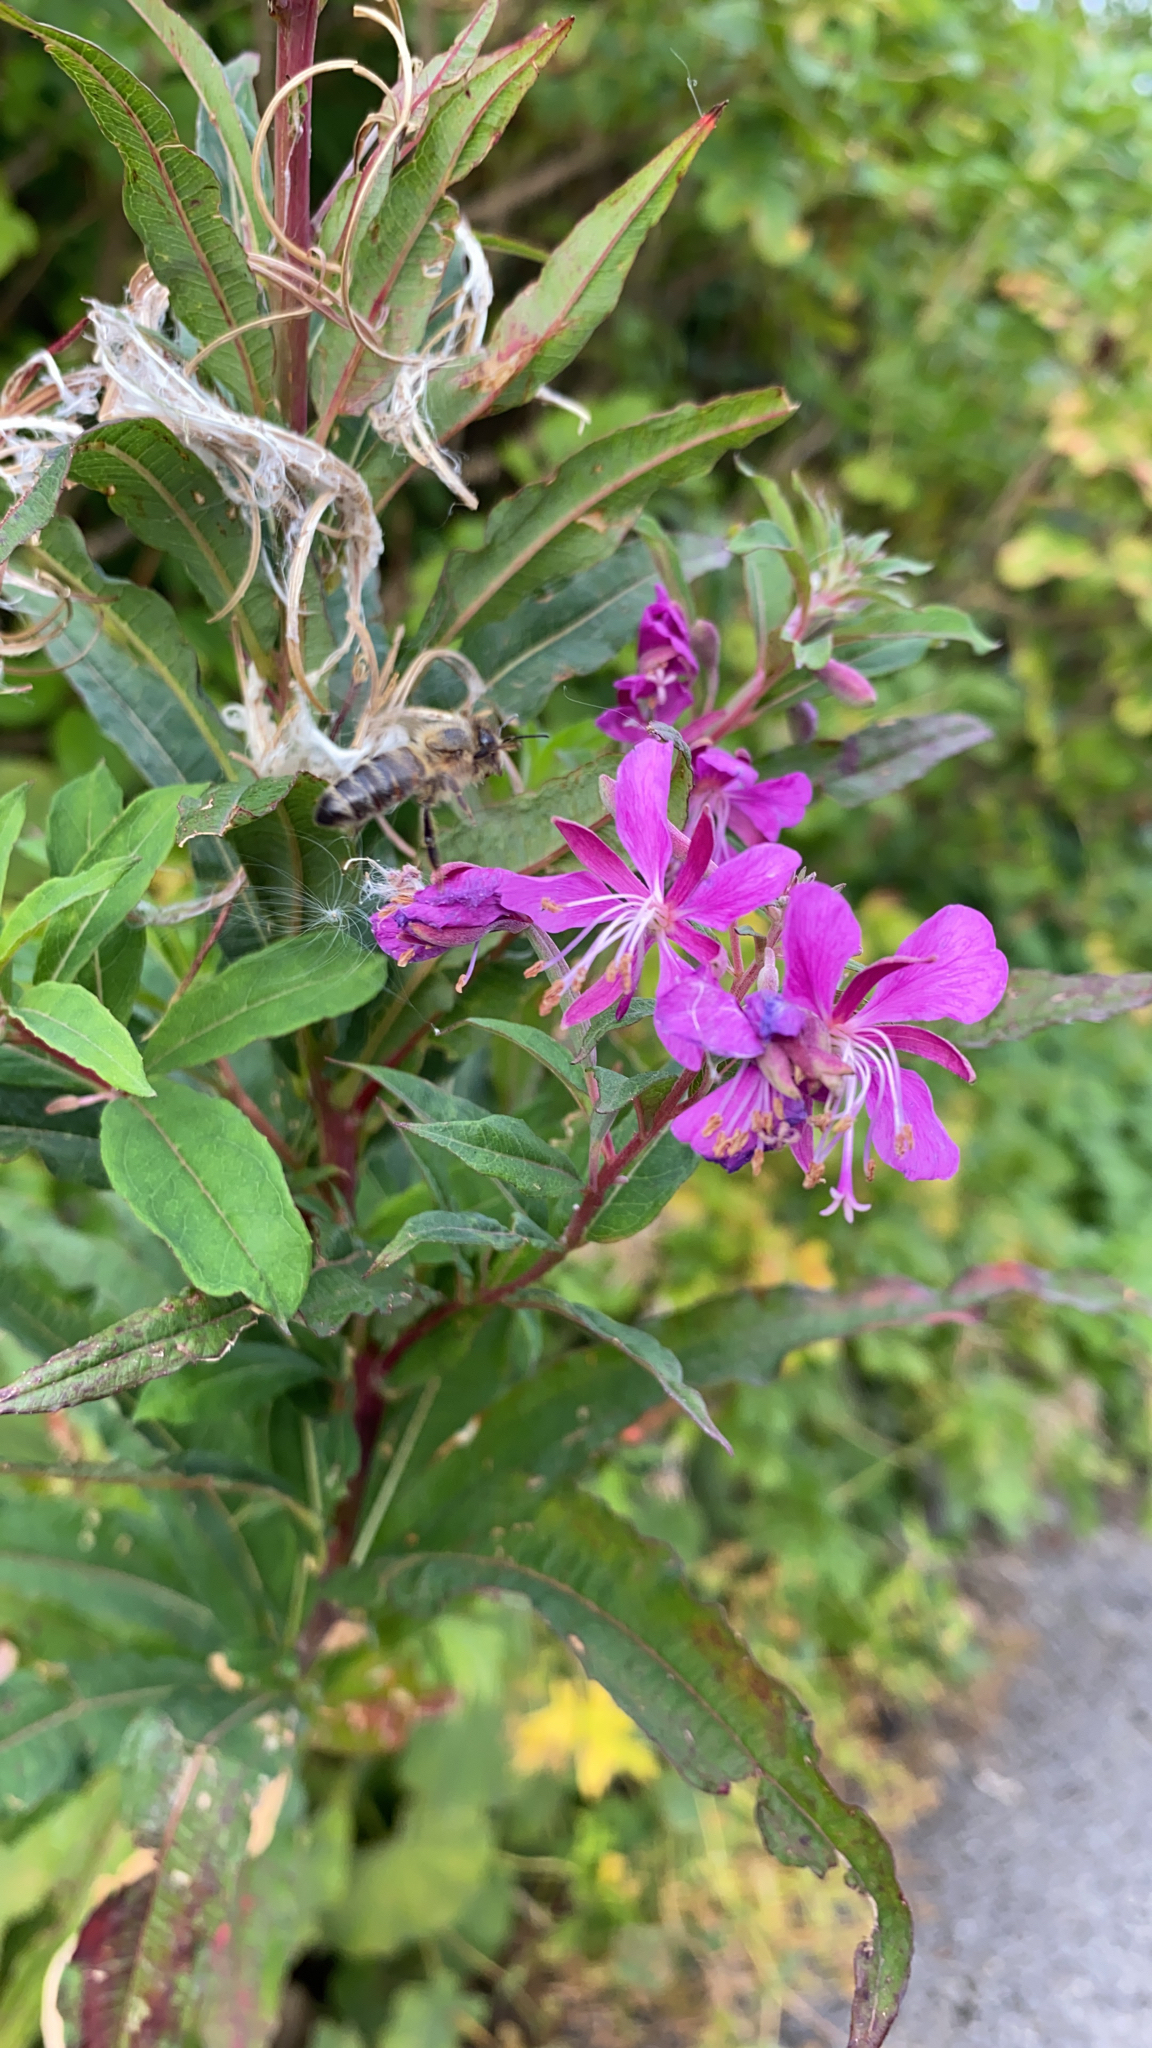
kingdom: Plantae
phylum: Tracheophyta
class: Magnoliopsida
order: Myrtales
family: Onagraceae
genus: Chamaenerion
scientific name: Chamaenerion angustifolium
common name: Fireweed
